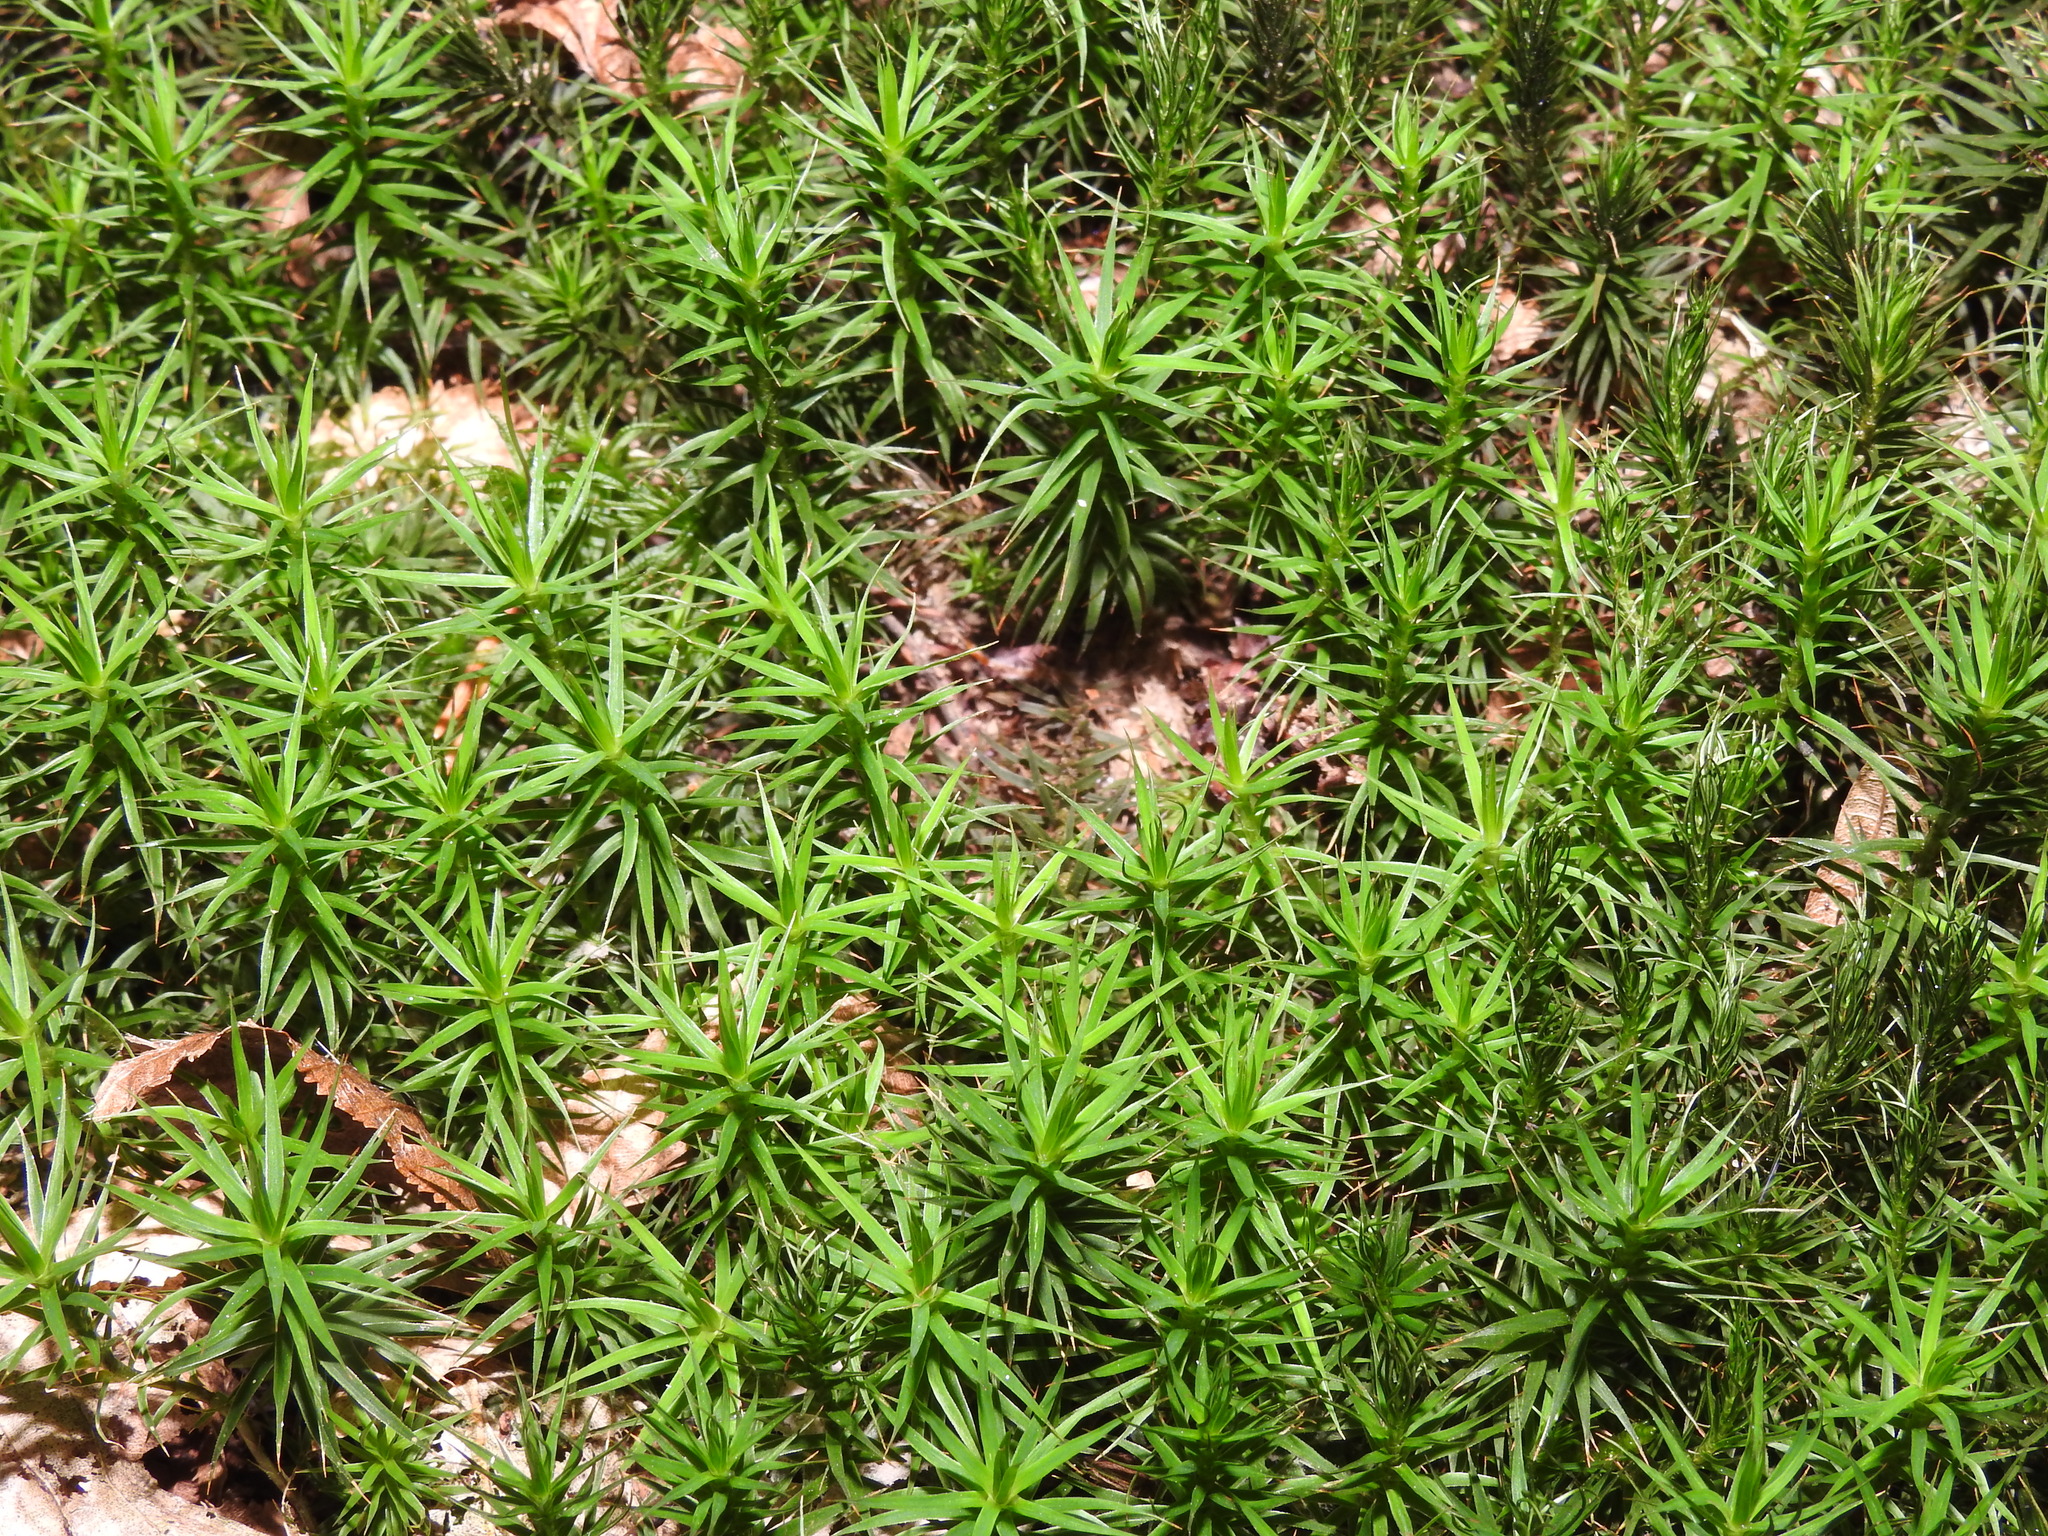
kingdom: Plantae
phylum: Bryophyta
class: Polytrichopsida
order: Polytrichales
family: Polytrichaceae
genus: Polytrichum
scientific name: Polytrichum formosum
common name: Bank haircap moss
